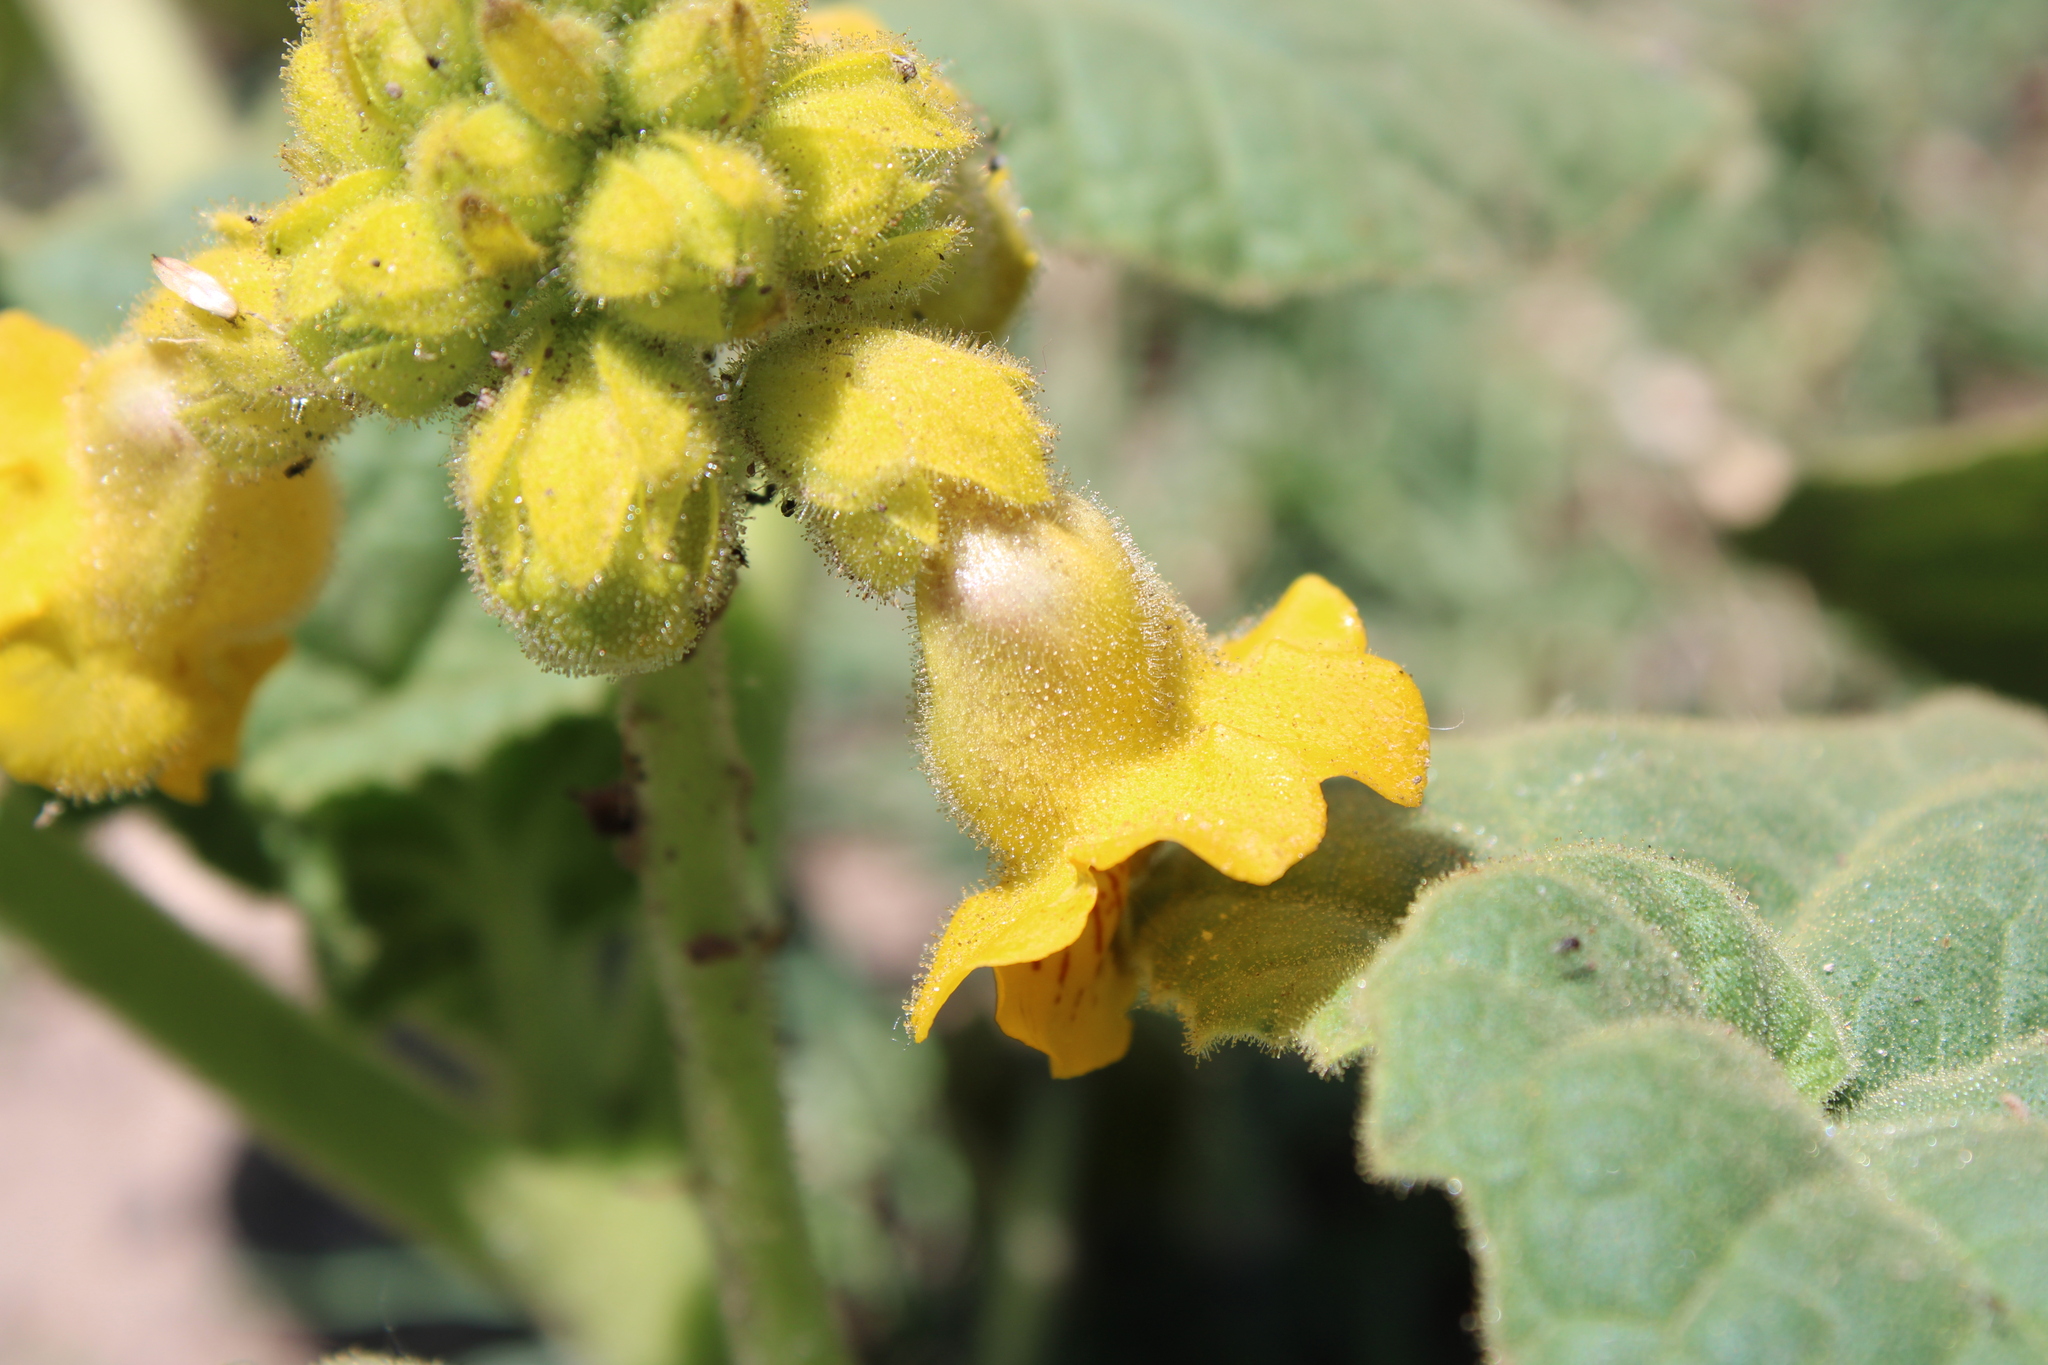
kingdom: Plantae
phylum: Tracheophyta
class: Magnoliopsida
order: Lamiales
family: Martyniaceae
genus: Ibicella
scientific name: Ibicella lutea
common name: Yellow unicorn-plant
